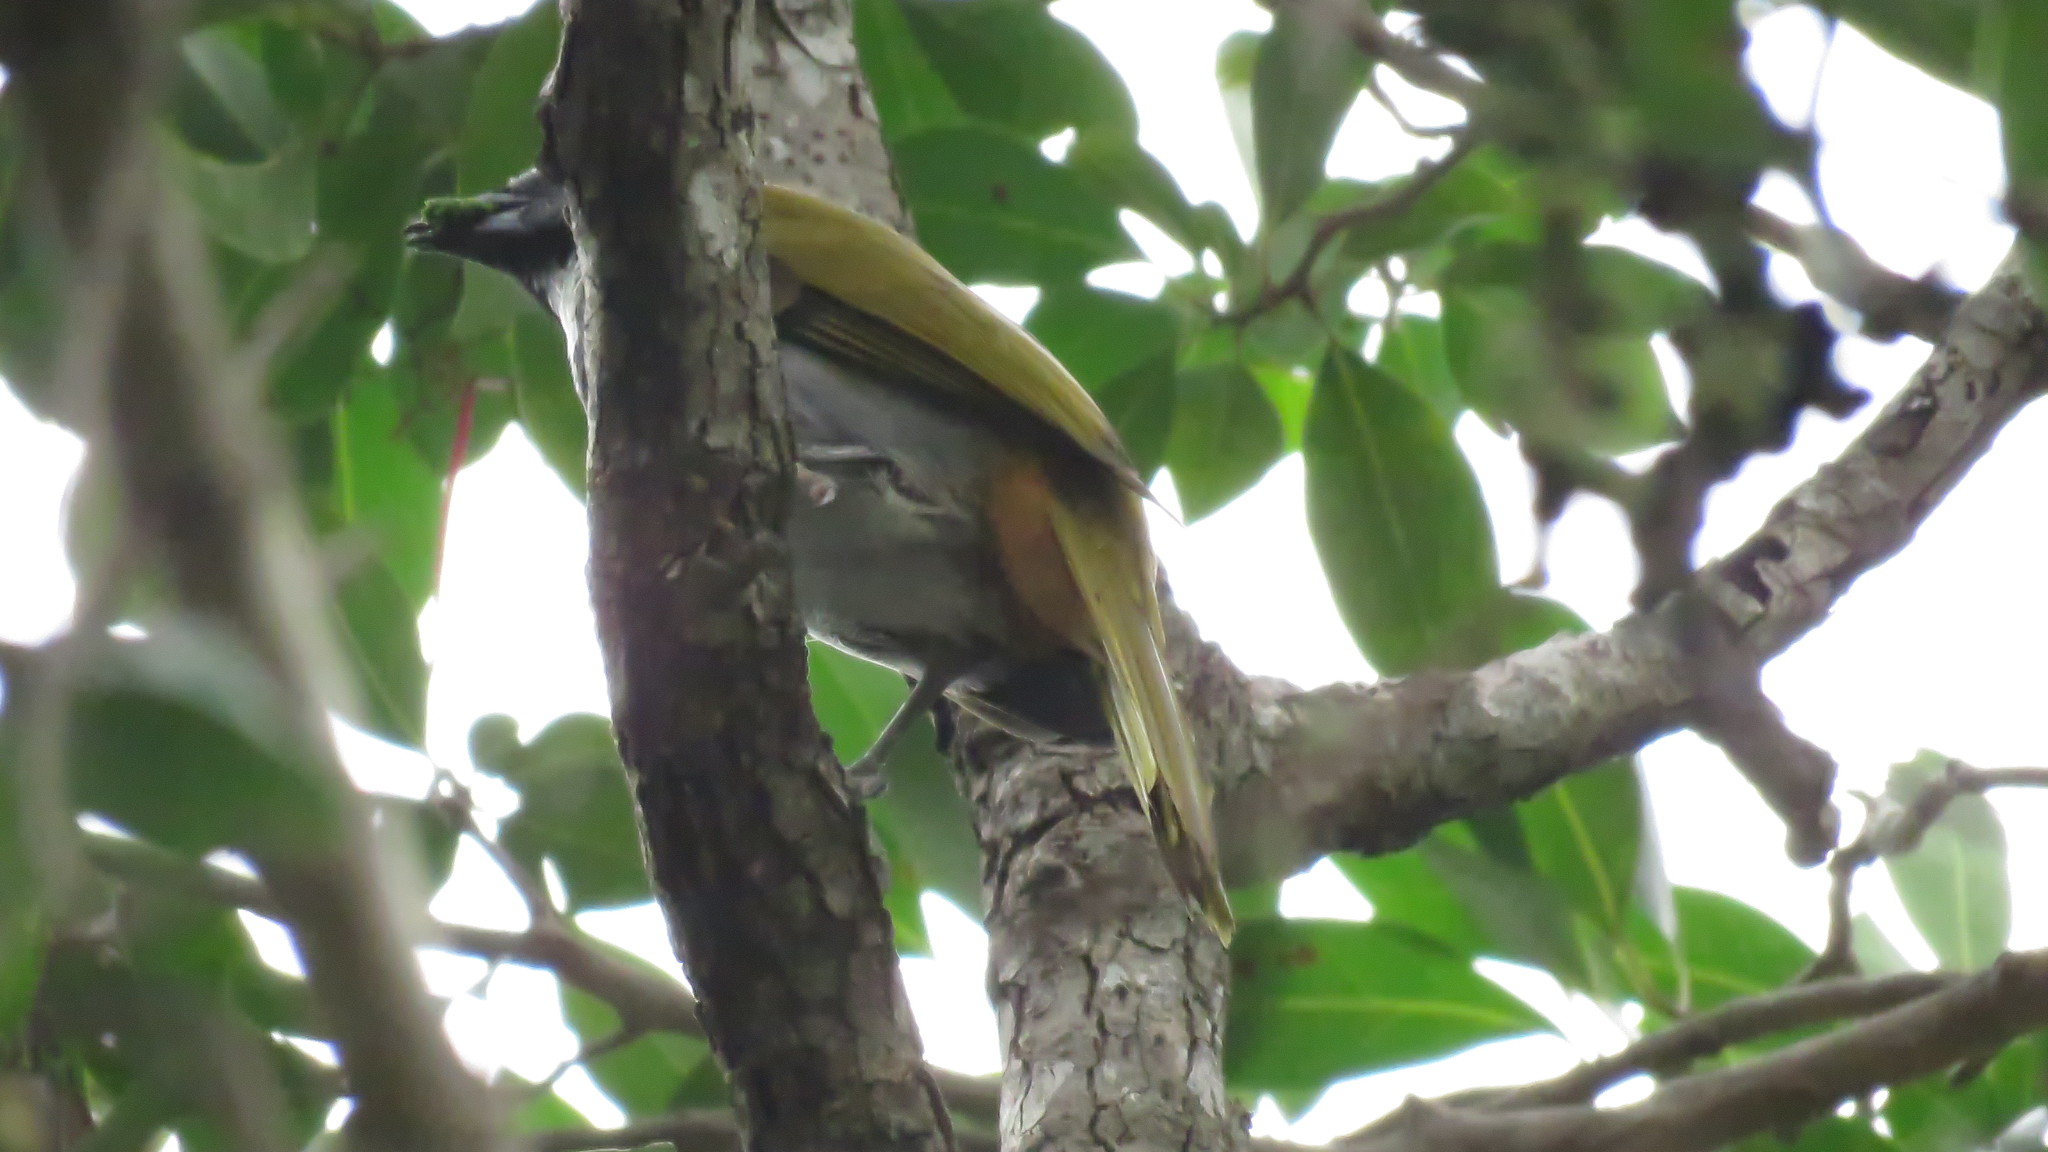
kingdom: Animalia
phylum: Chordata
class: Aves
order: Passeriformes
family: Thraupidae
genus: Saltator
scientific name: Saltator atriceps
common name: Black-headed saltator
